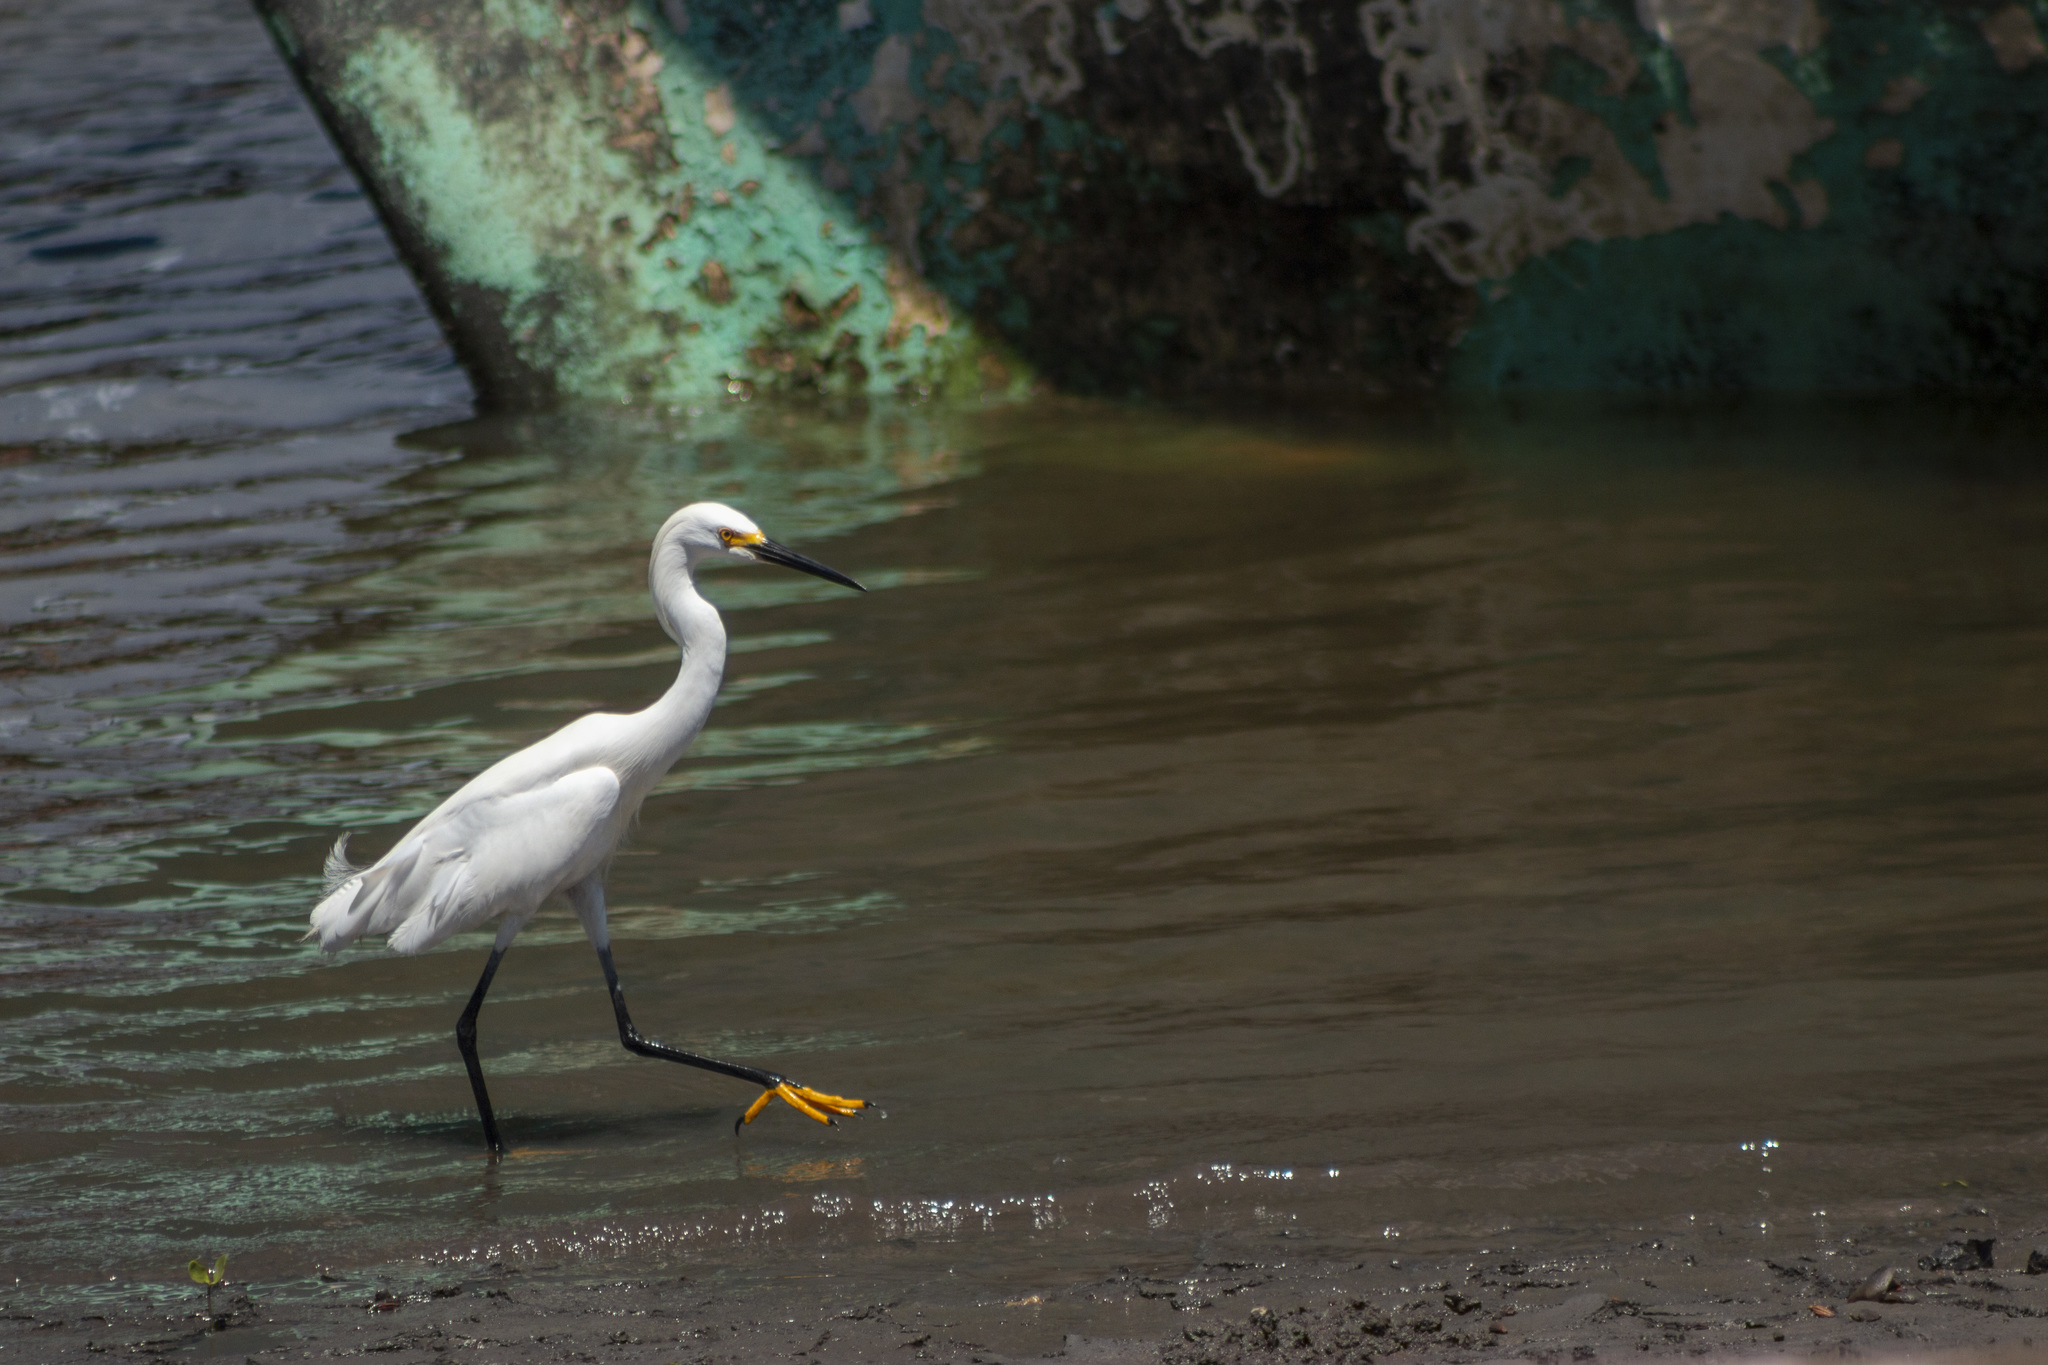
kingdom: Animalia
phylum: Chordata
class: Aves
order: Pelecaniformes
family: Ardeidae
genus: Egretta
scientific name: Egretta thula
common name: Snowy egret
